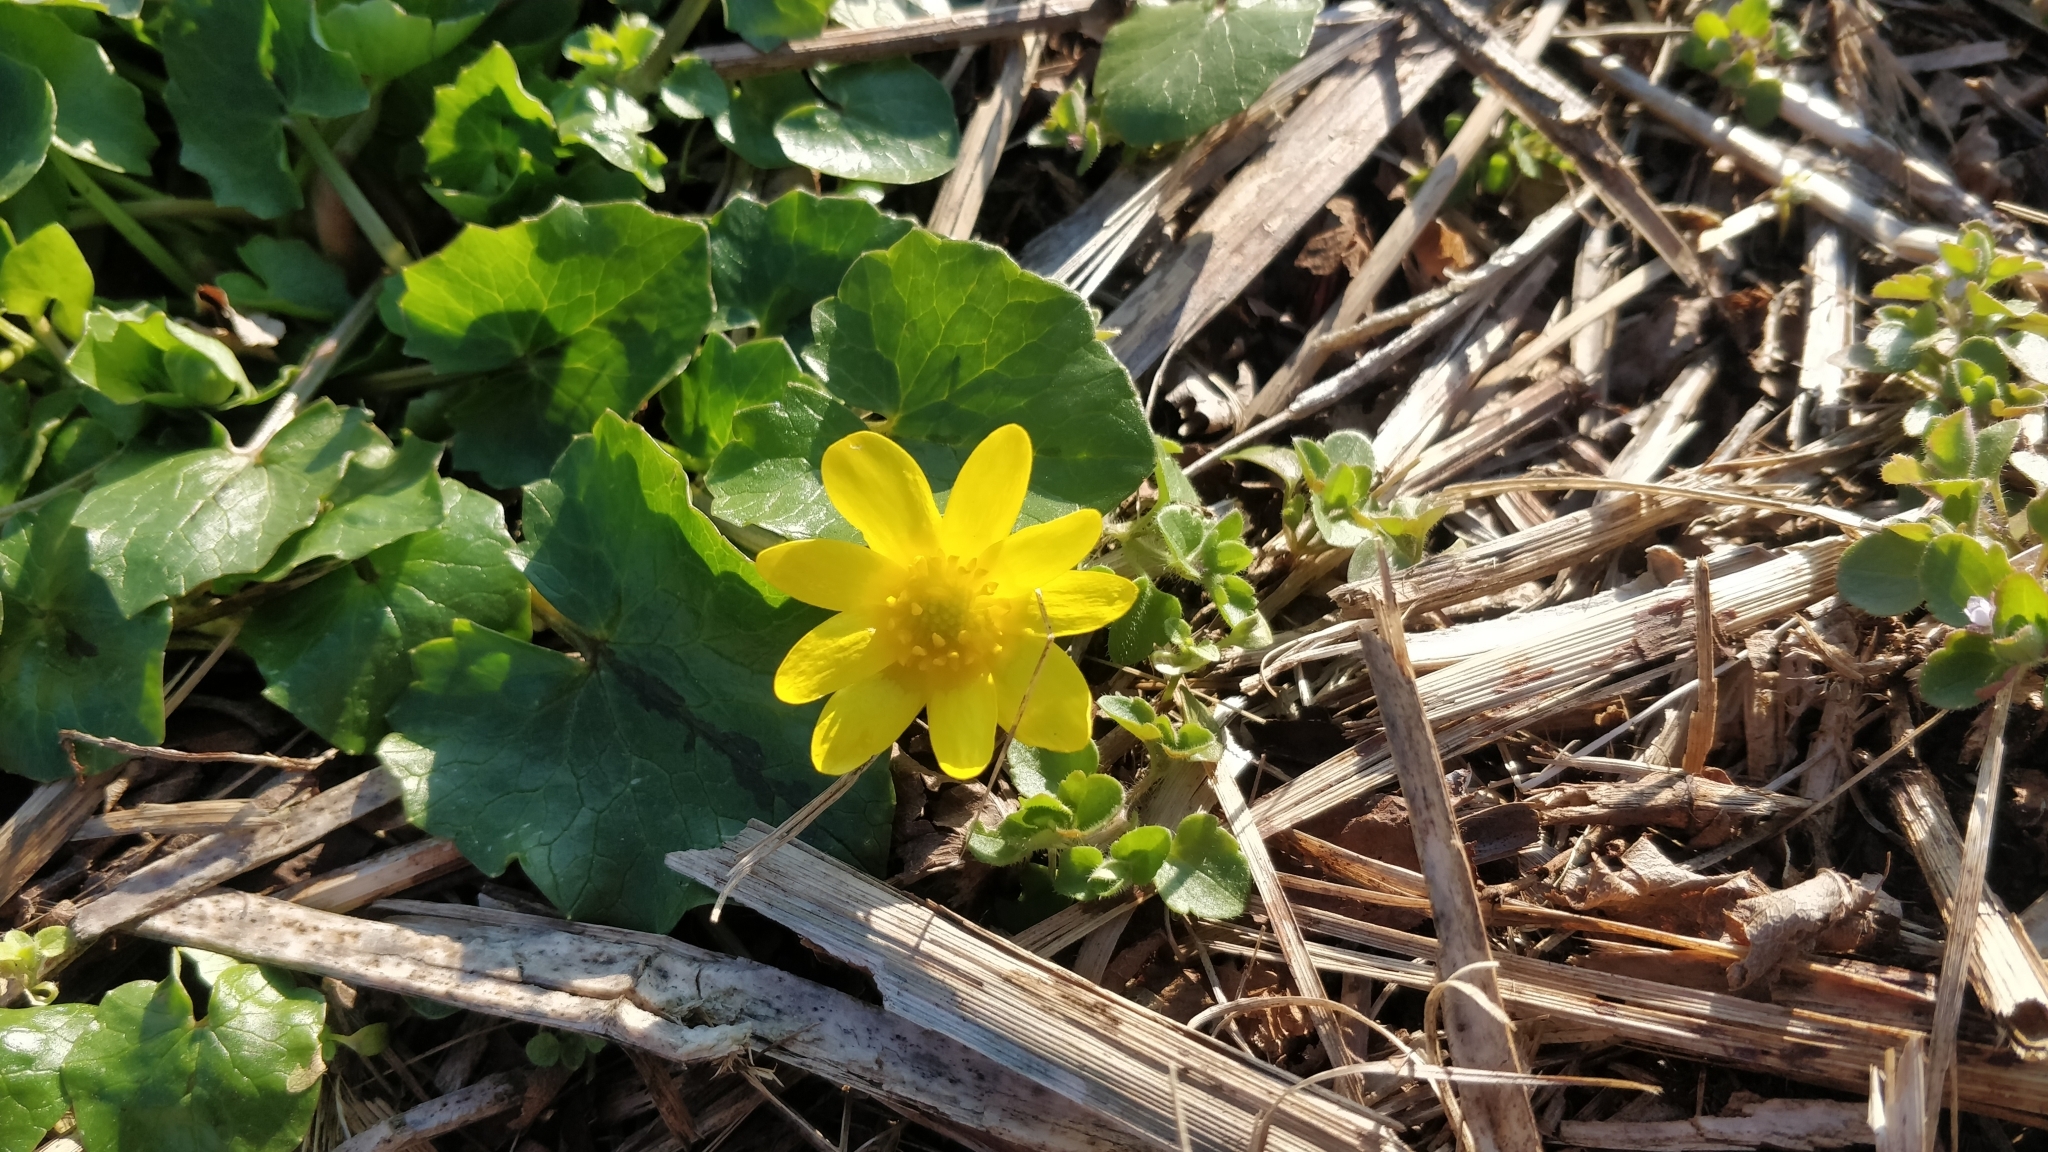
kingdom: Plantae
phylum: Tracheophyta
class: Magnoliopsida
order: Ranunculales
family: Ranunculaceae
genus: Ficaria
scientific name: Ficaria verna
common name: Lesser celandine
